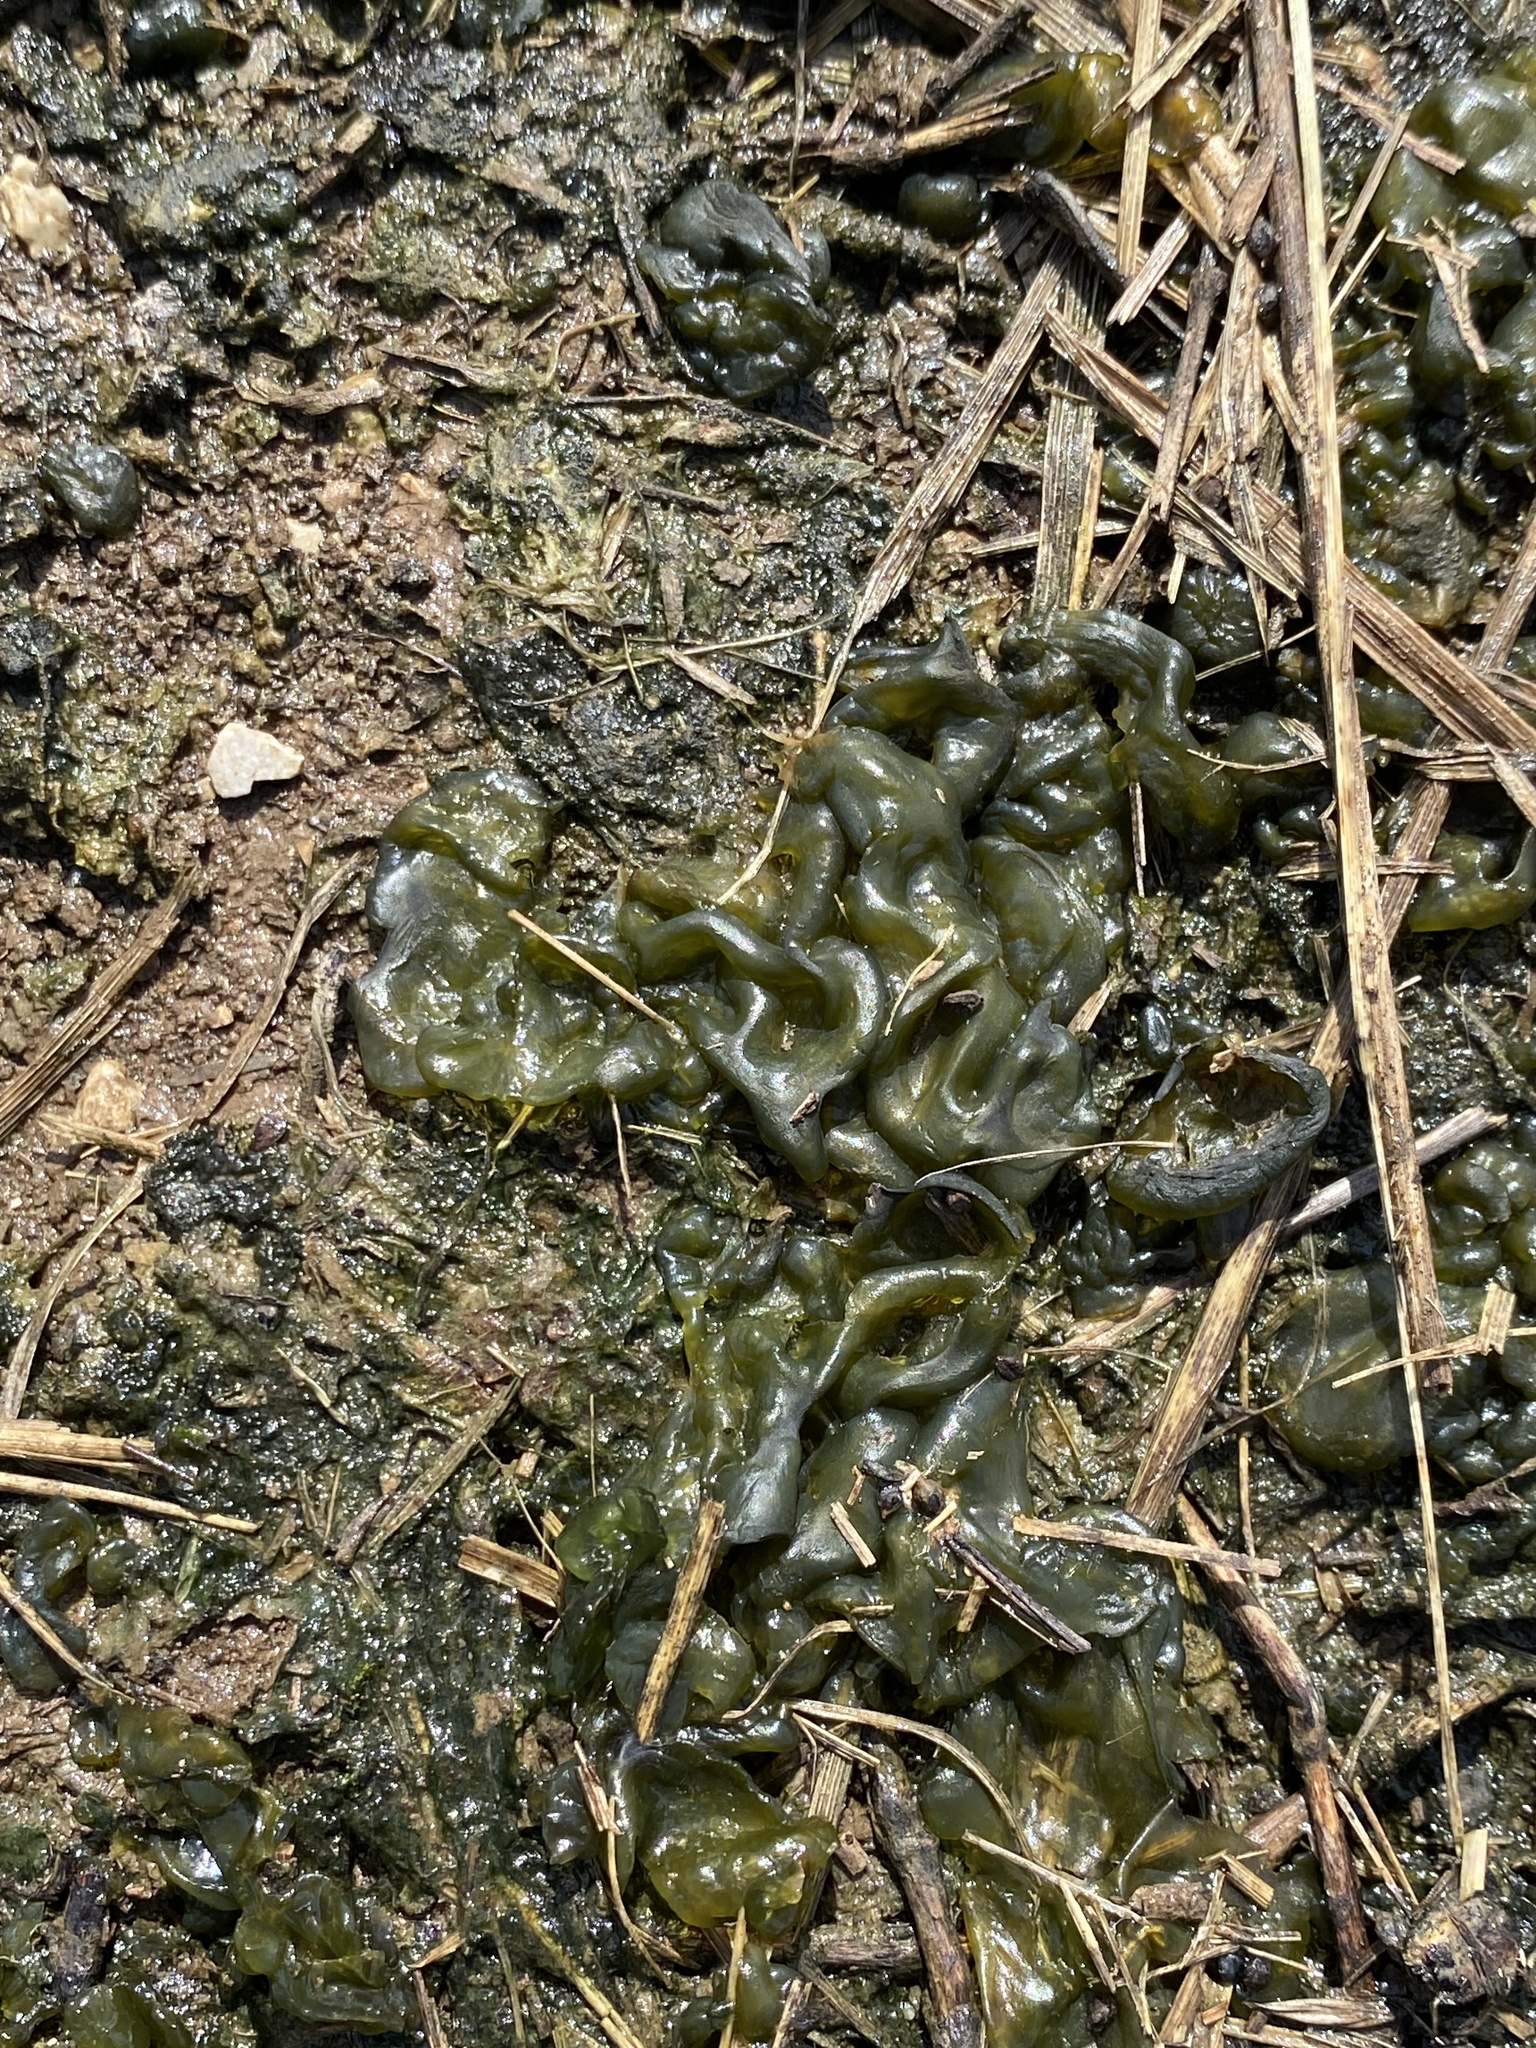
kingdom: Bacteria
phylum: Cyanobacteria
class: Cyanobacteriia
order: Cyanobacteriales
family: Nostocaceae
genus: Nostoc
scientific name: Nostoc commune
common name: Star jelly
